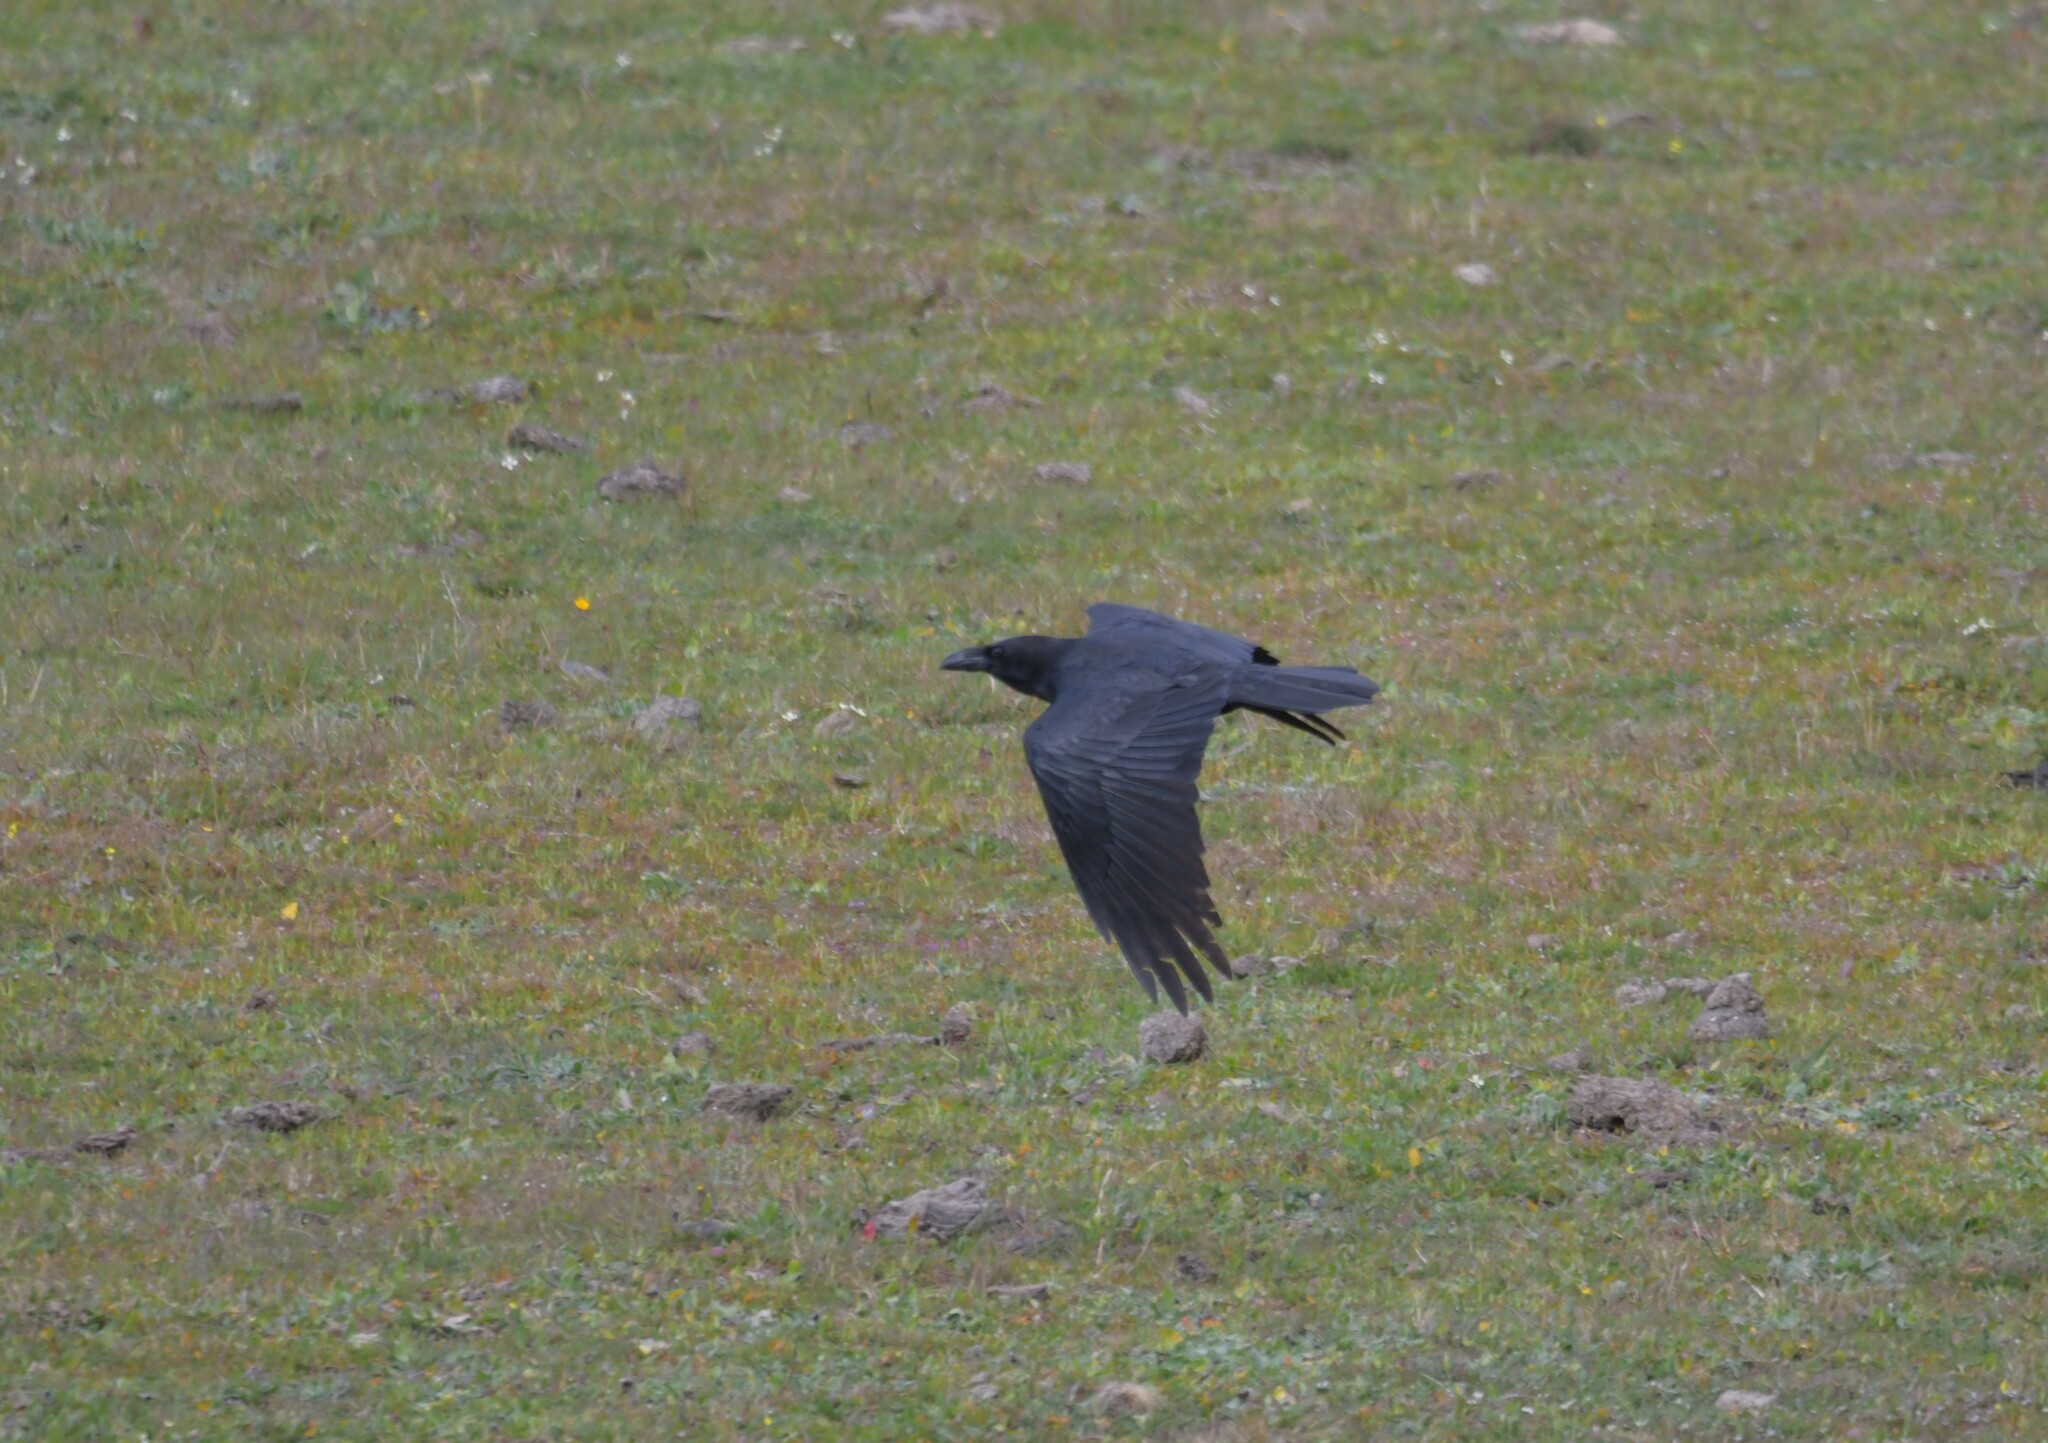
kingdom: Animalia
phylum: Chordata
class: Aves
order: Passeriformes
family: Corvidae
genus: Corvus
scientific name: Corvus corax
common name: Common raven
